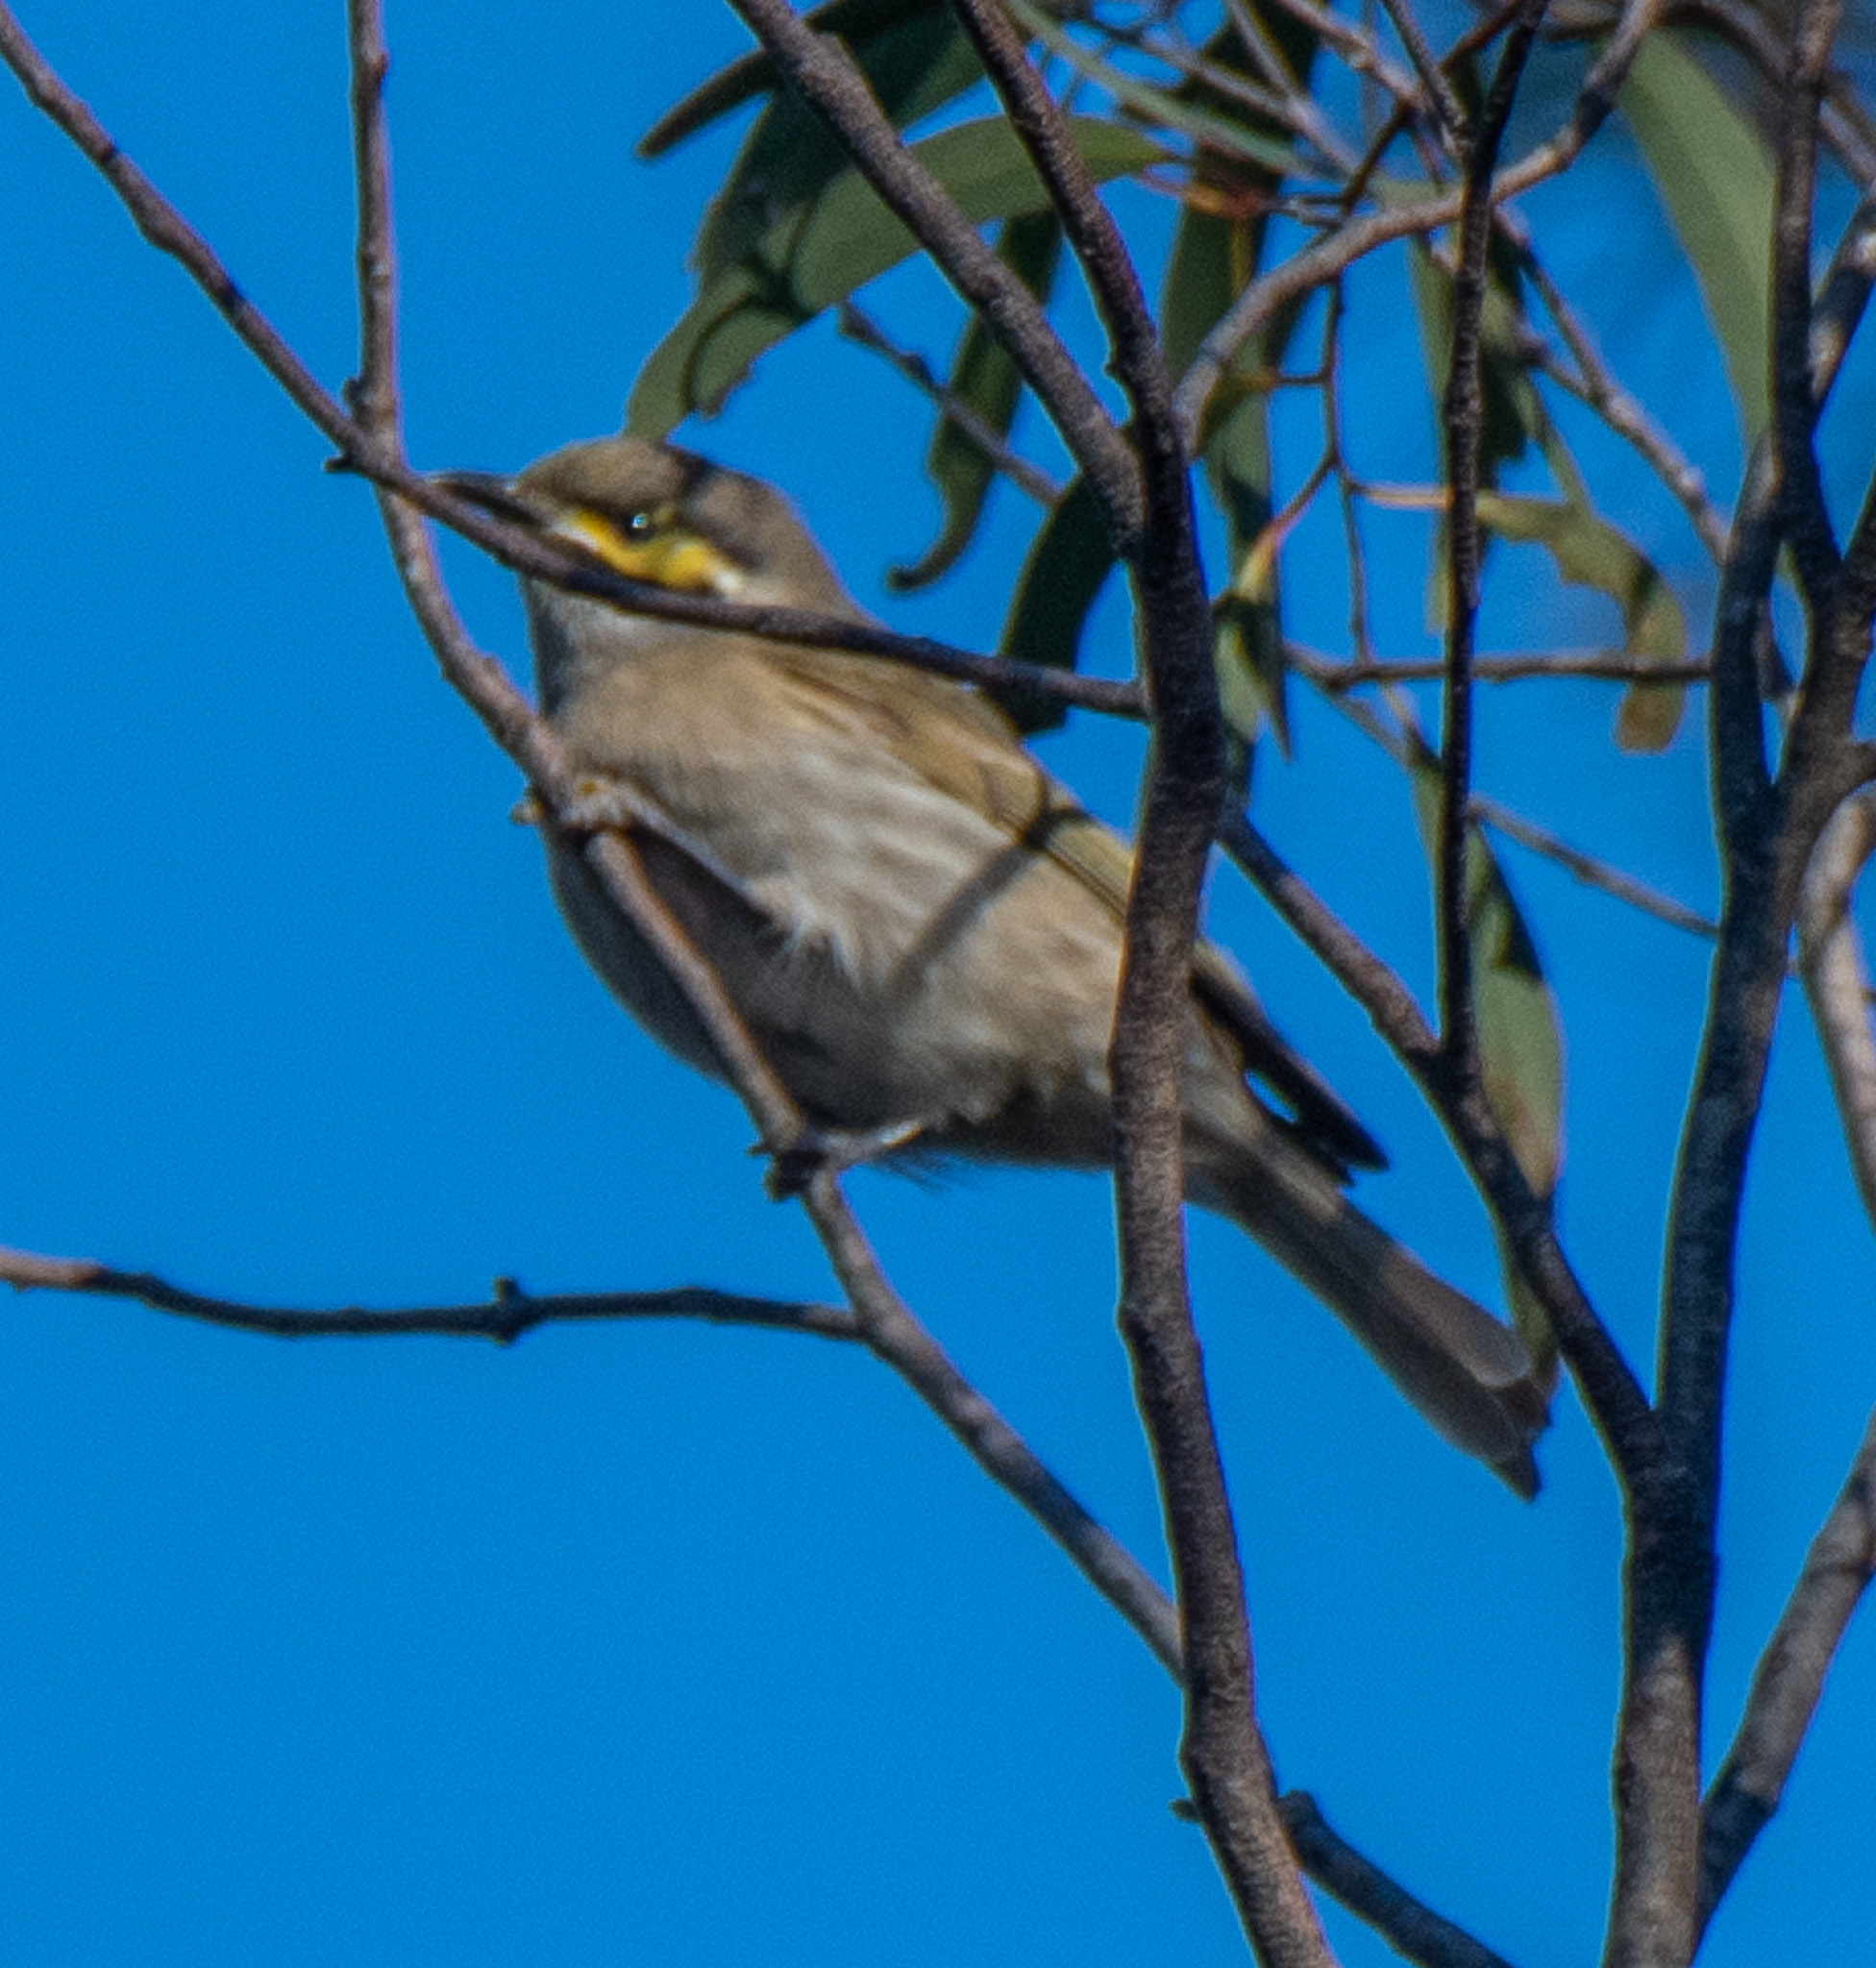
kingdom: Animalia
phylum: Chordata
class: Aves
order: Passeriformes
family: Meliphagidae
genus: Caligavis
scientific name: Caligavis chrysops
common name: Yellow-faced honeyeater
